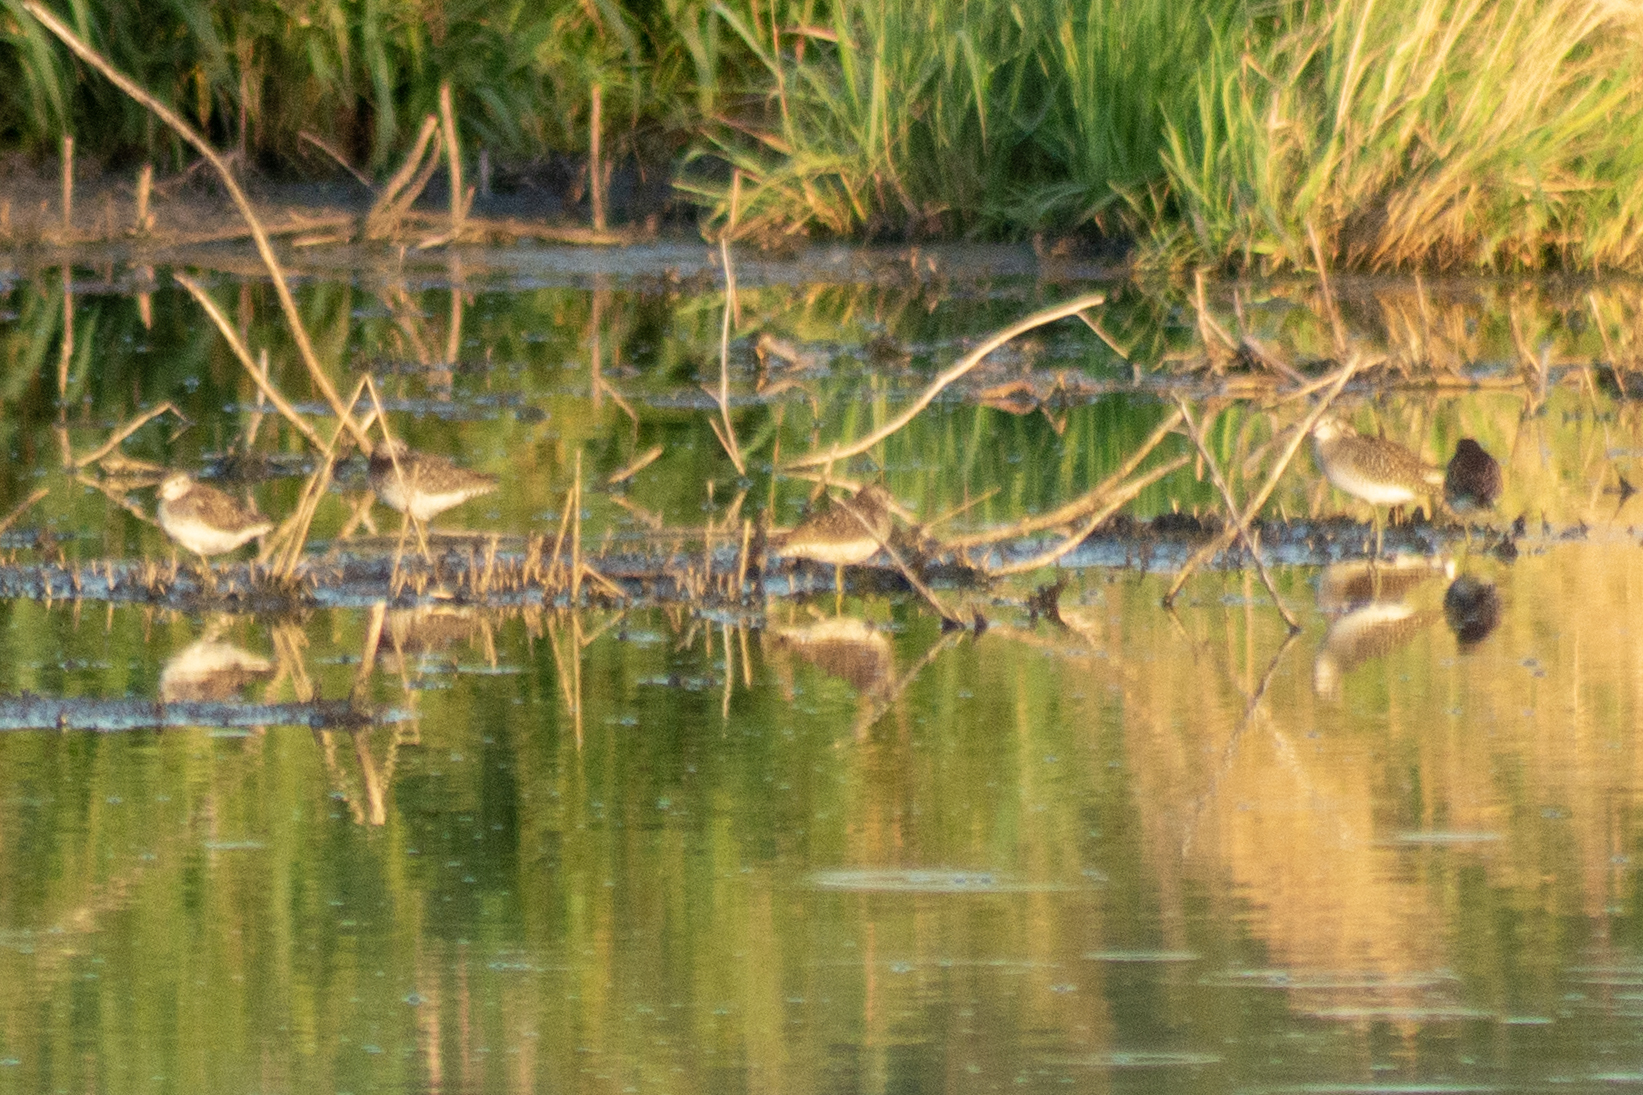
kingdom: Animalia
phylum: Chordata
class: Aves
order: Charadriiformes
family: Scolopacidae
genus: Tringa
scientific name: Tringa glareola
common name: Wood sandpiper
